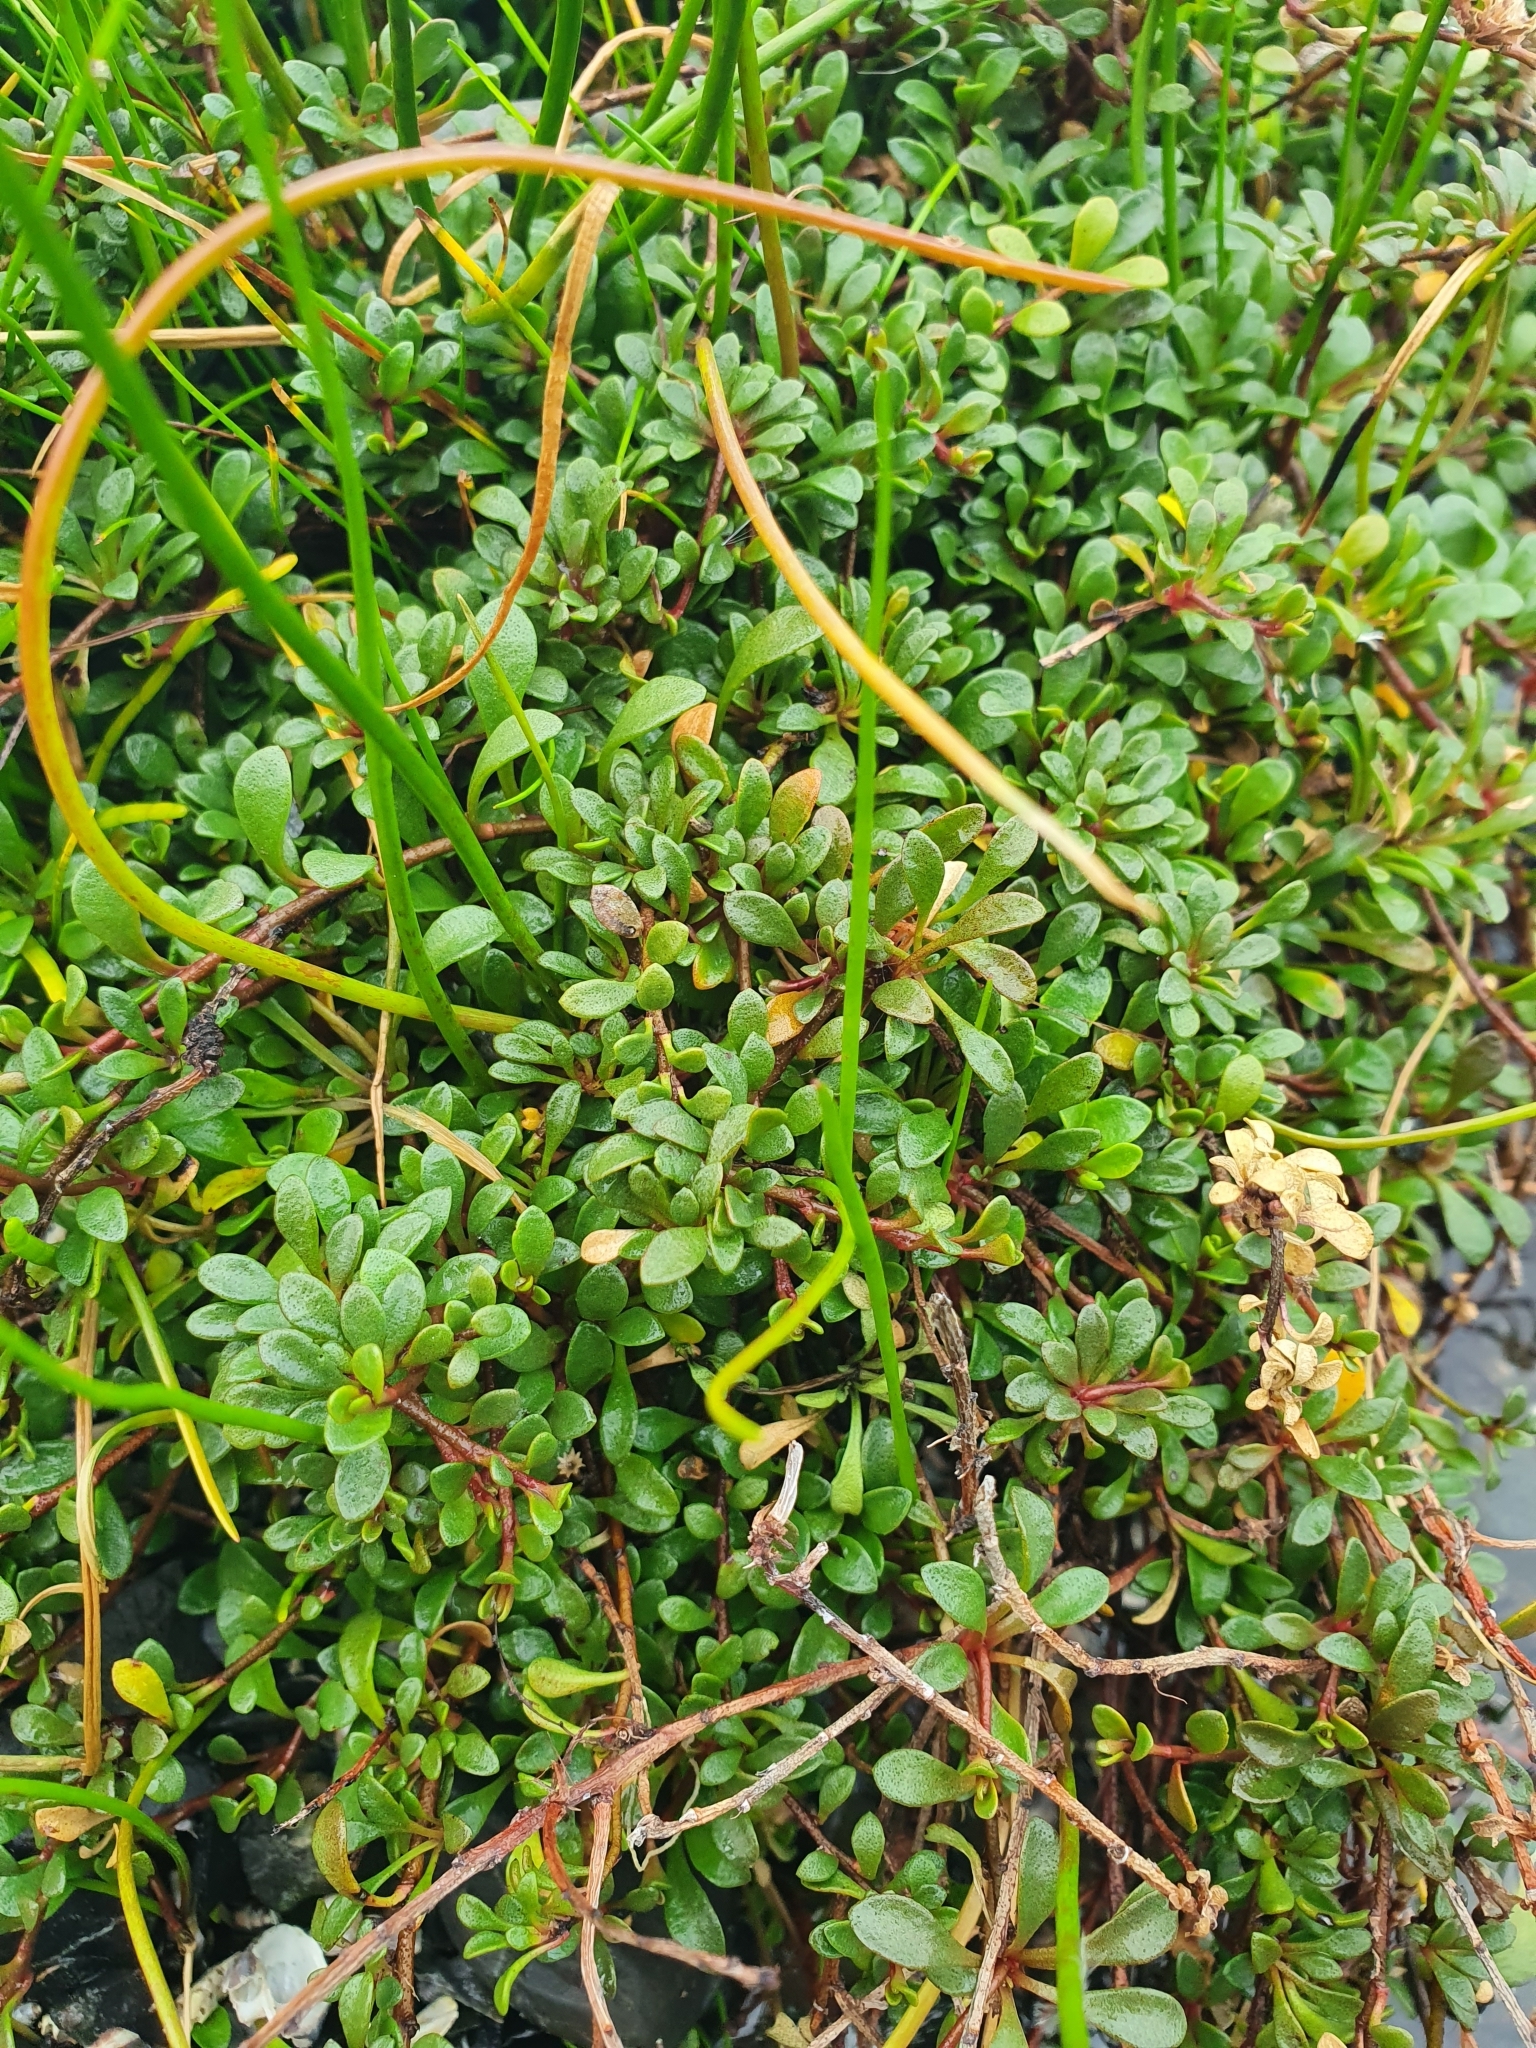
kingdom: Plantae
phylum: Tracheophyta
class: Magnoliopsida
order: Ericales
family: Primulaceae
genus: Samolus
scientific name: Samolus repens
